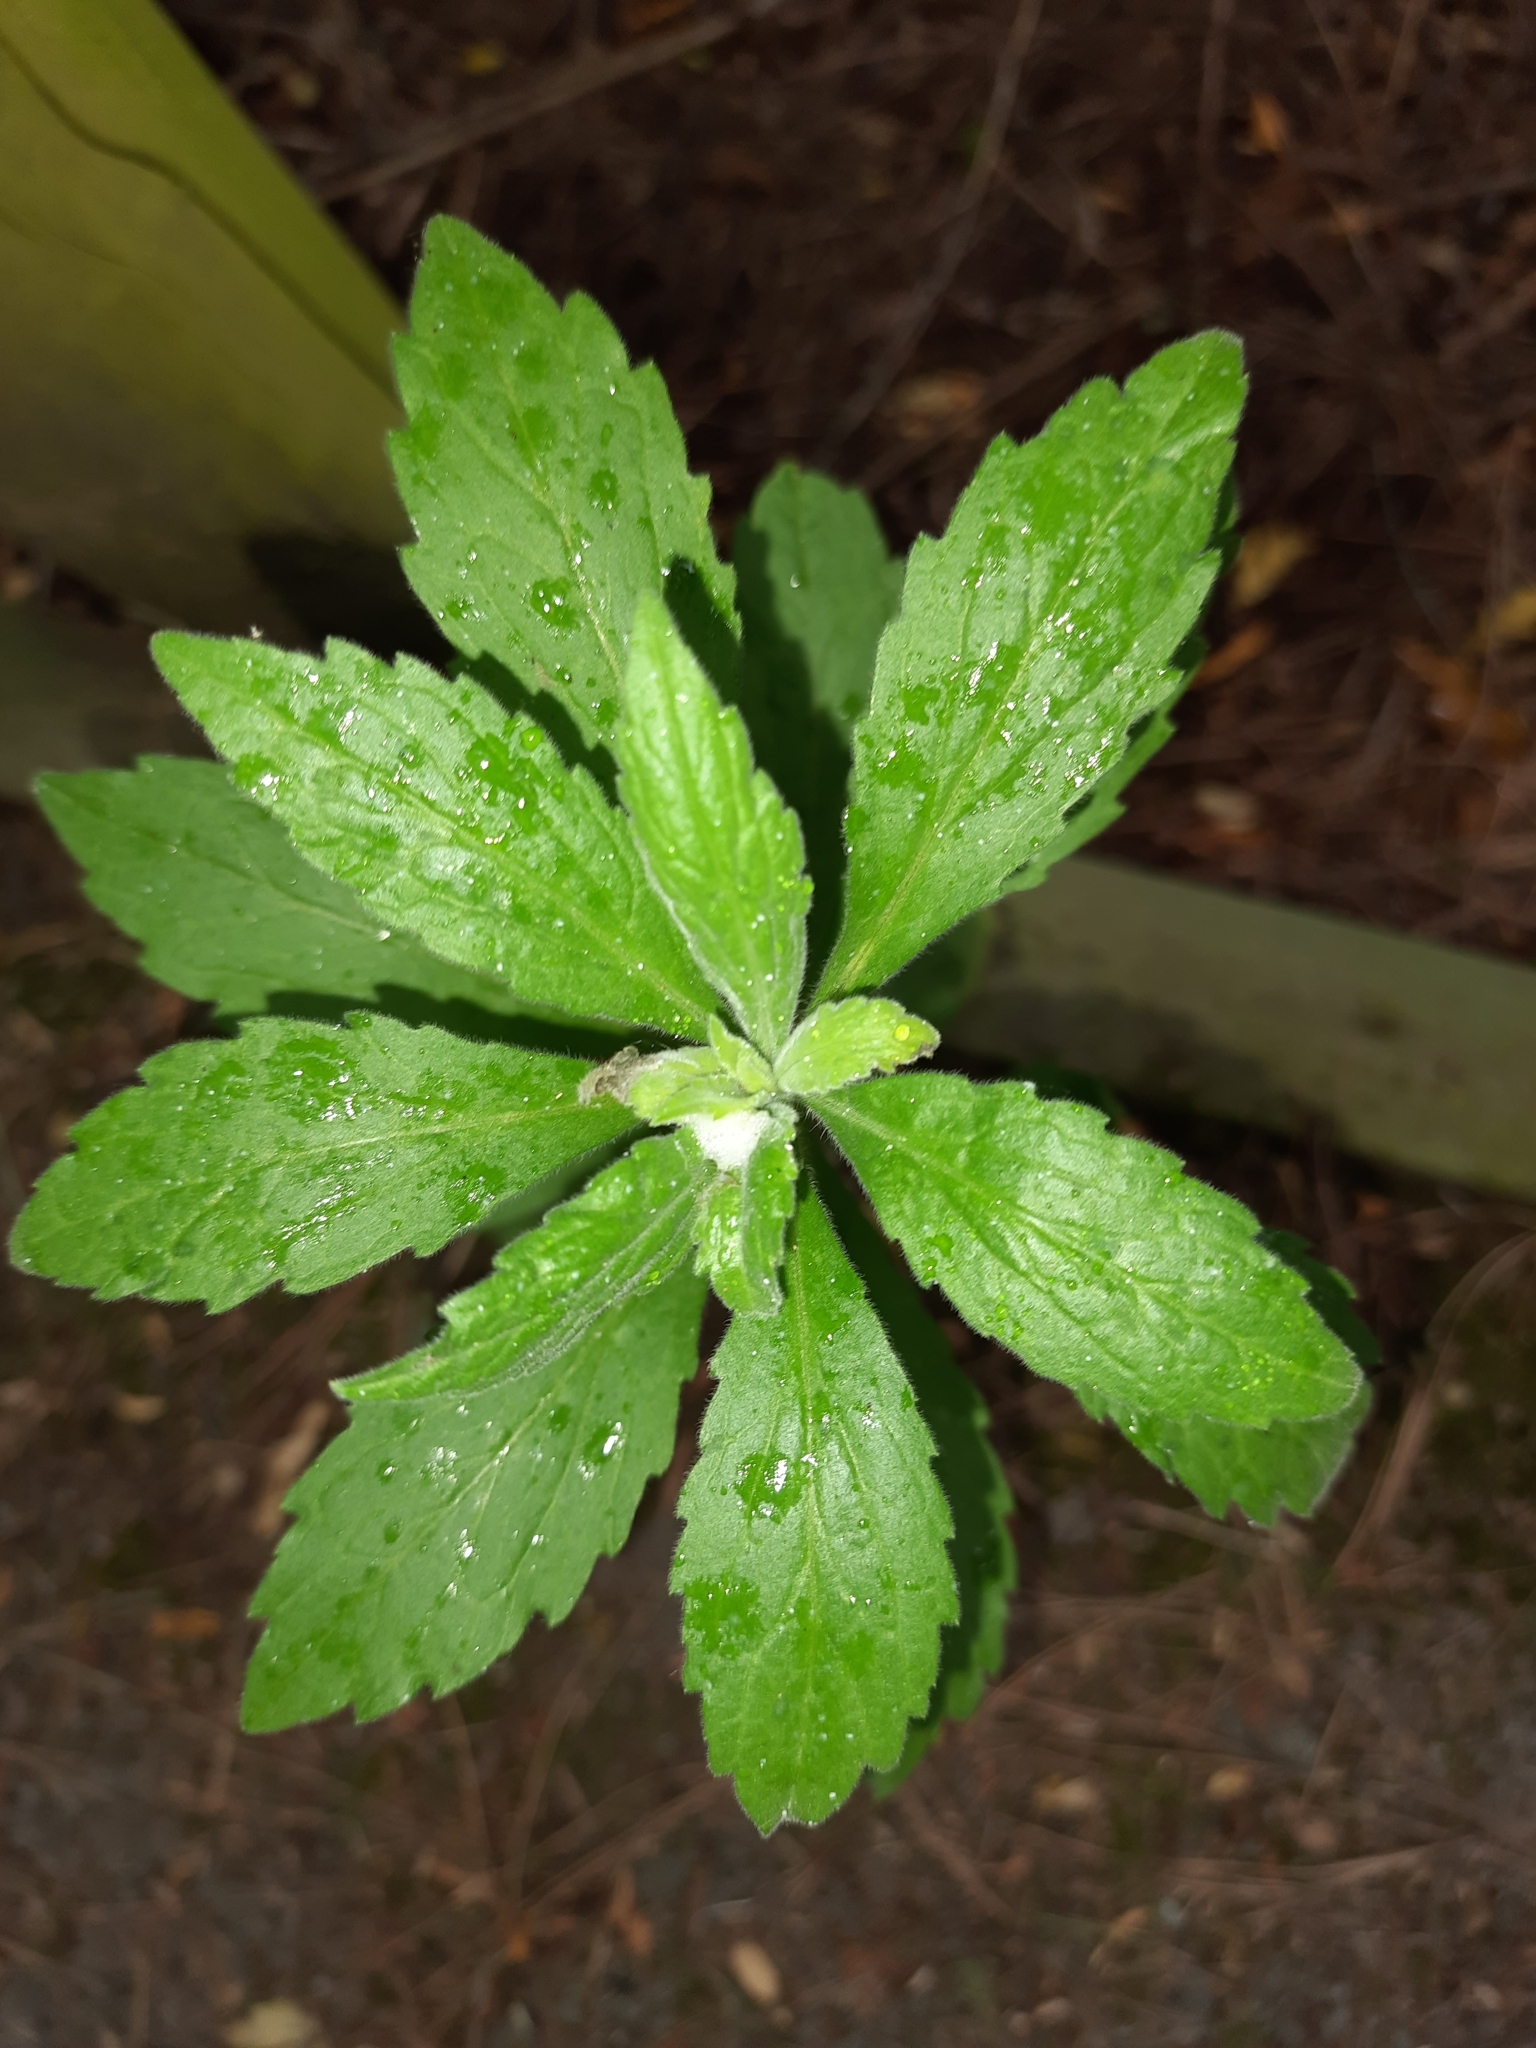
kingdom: Plantae
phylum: Tracheophyta
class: Magnoliopsida
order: Asterales
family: Asteraceae
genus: Erigeron
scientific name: Erigeron sumatrensis
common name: Daisy
